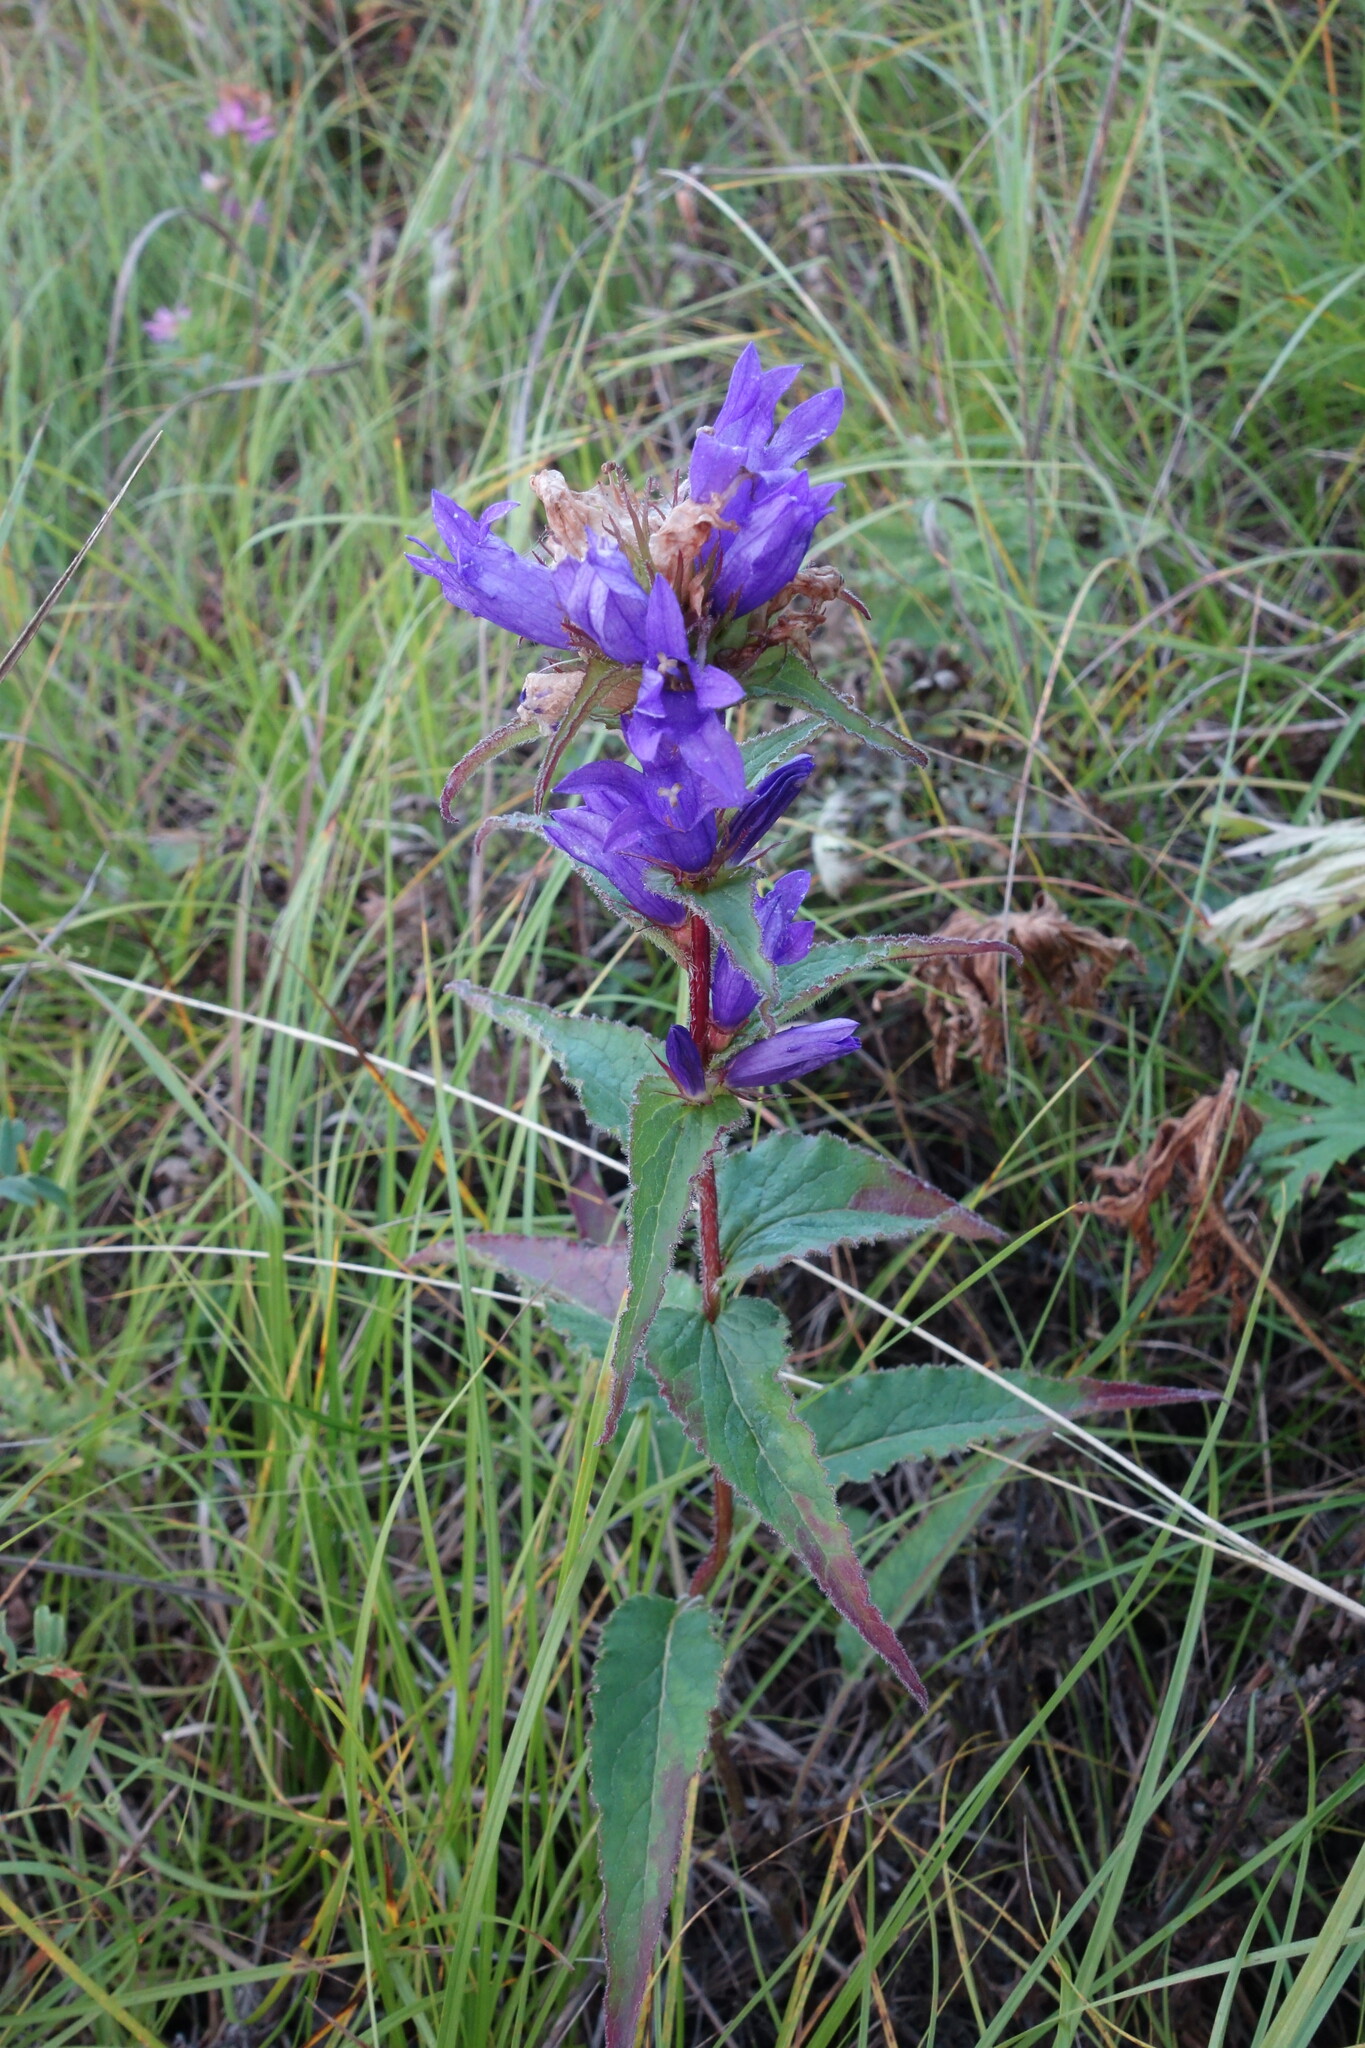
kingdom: Plantae
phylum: Tracheophyta
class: Magnoliopsida
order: Asterales
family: Campanulaceae
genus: Campanula
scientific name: Campanula glomerata
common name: Clustered bellflower
